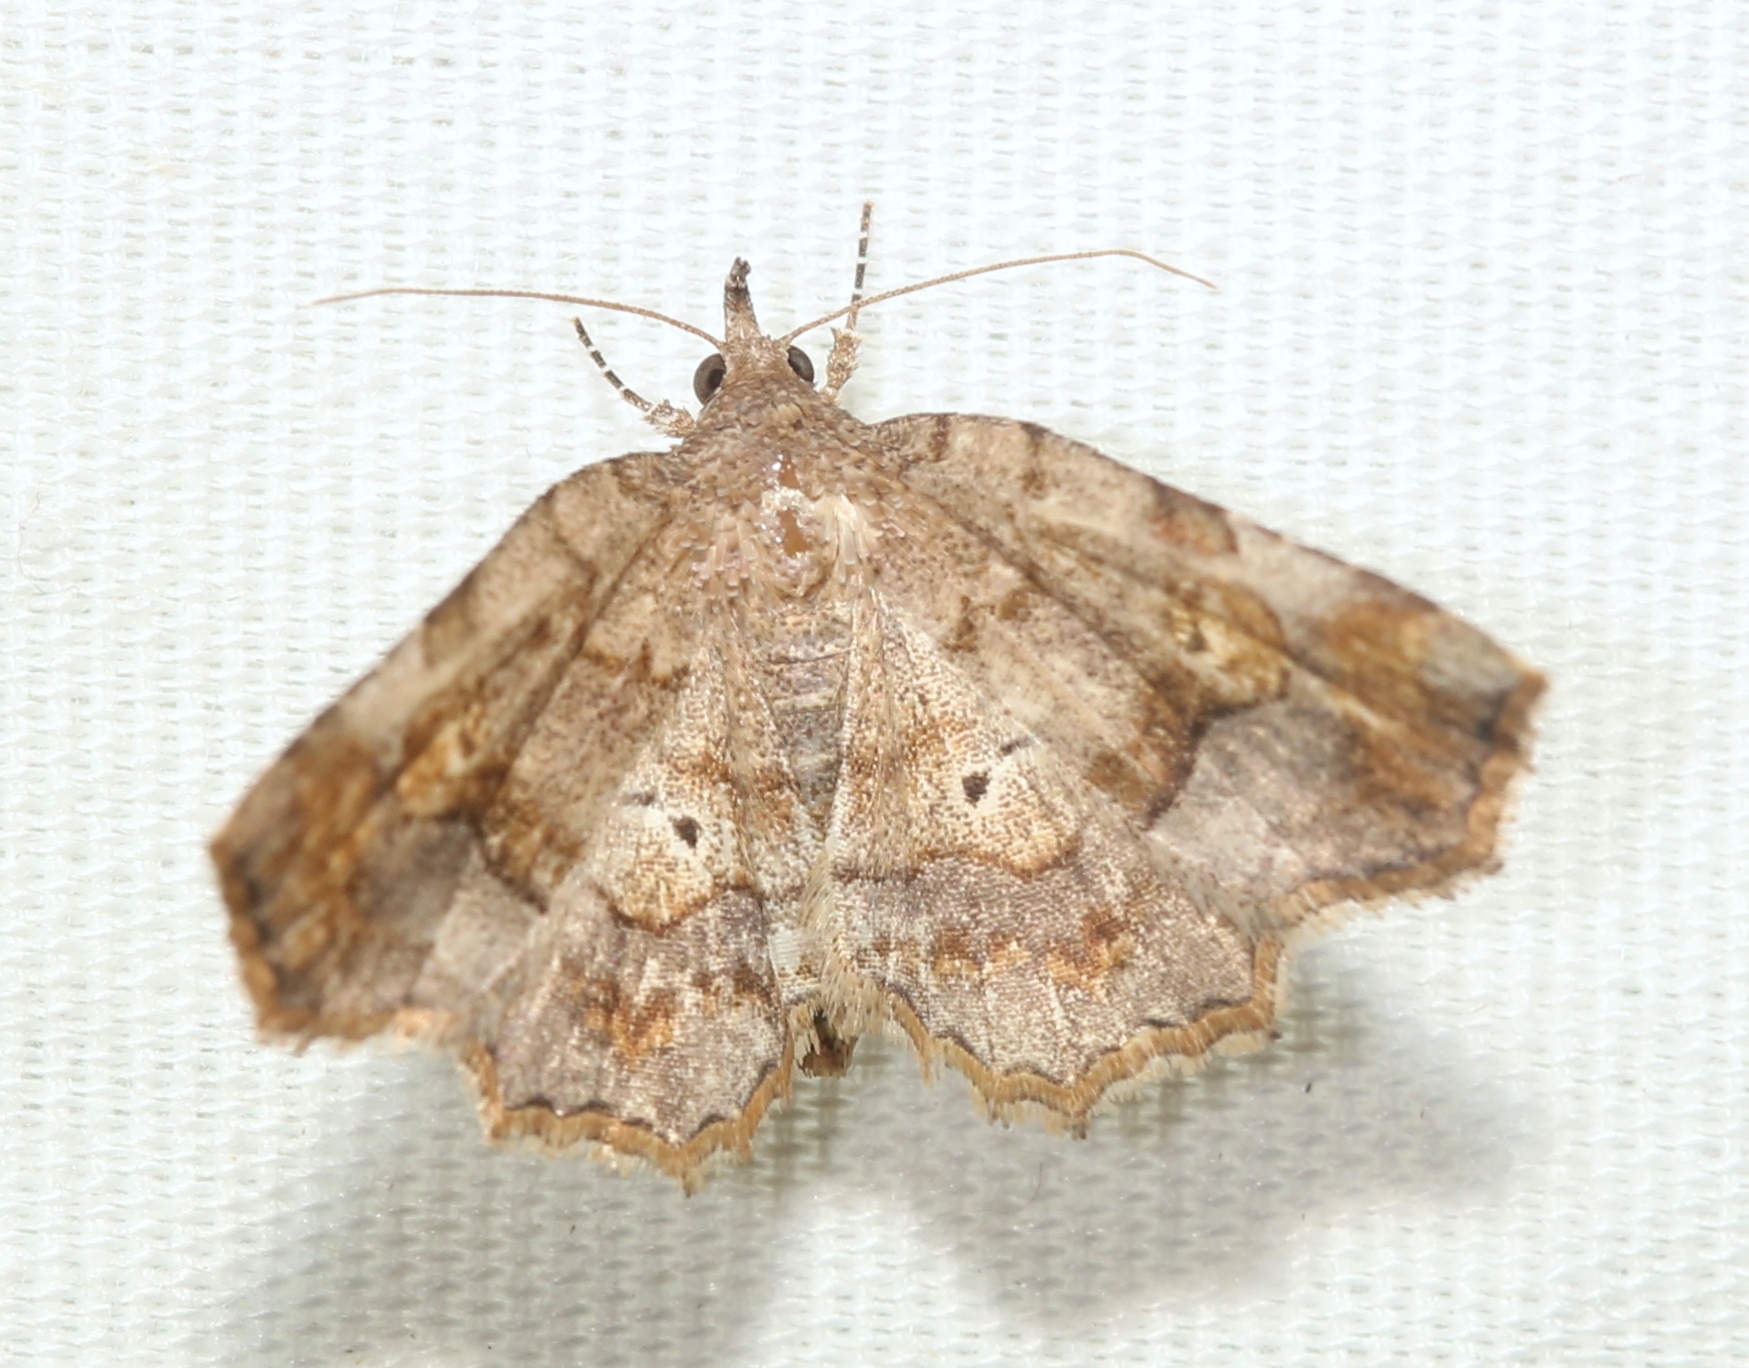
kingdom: Animalia
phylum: Arthropoda
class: Insecta
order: Lepidoptera
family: Erebidae
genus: Pangrapta
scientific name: Pangrapta decoralis
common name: Decorated owlet
